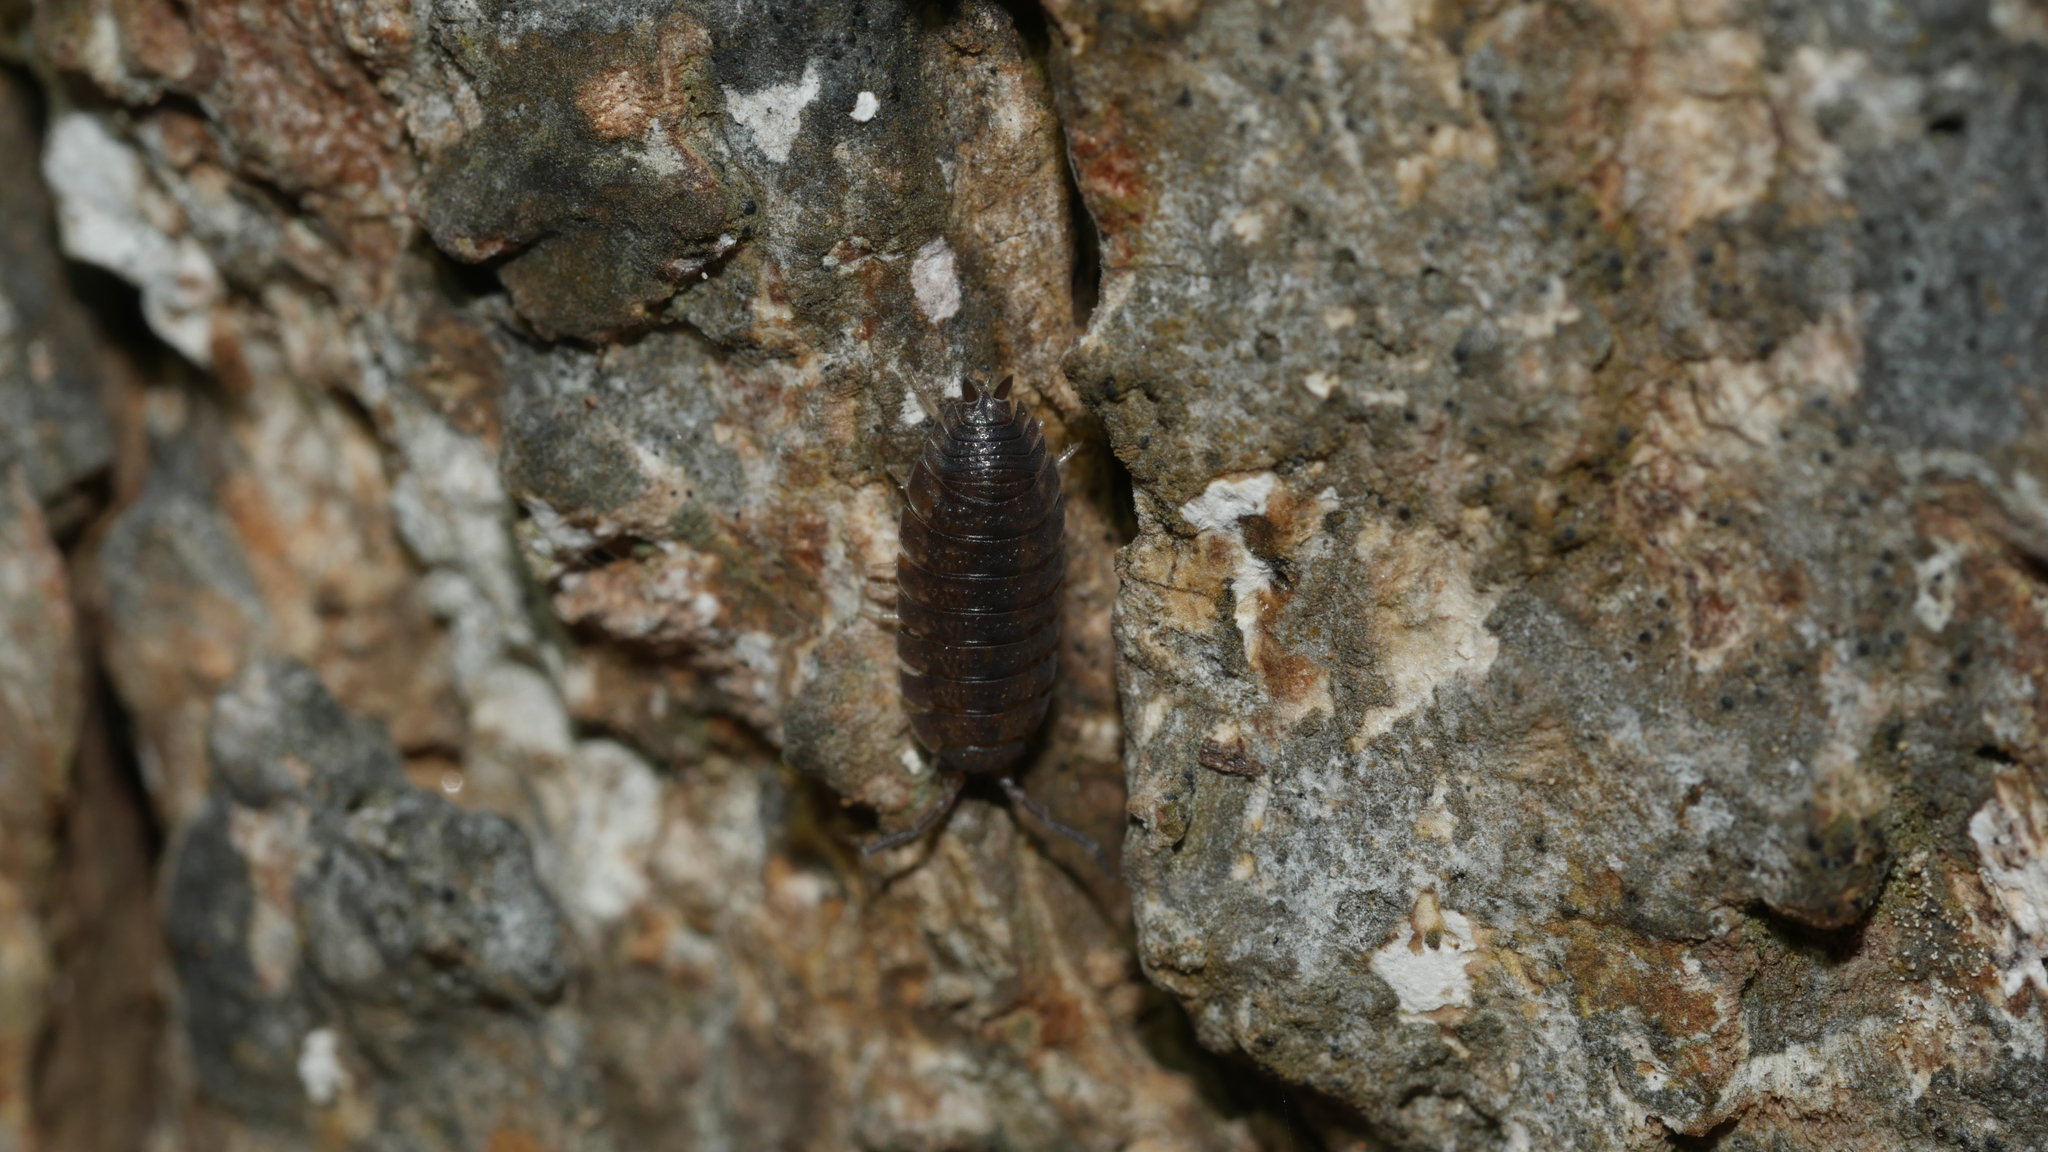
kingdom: Animalia
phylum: Arthropoda
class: Malacostraca
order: Isopoda
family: Porcellionidae
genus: Porcellio
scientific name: Porcellio scaber
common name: Common rough woodlouse
